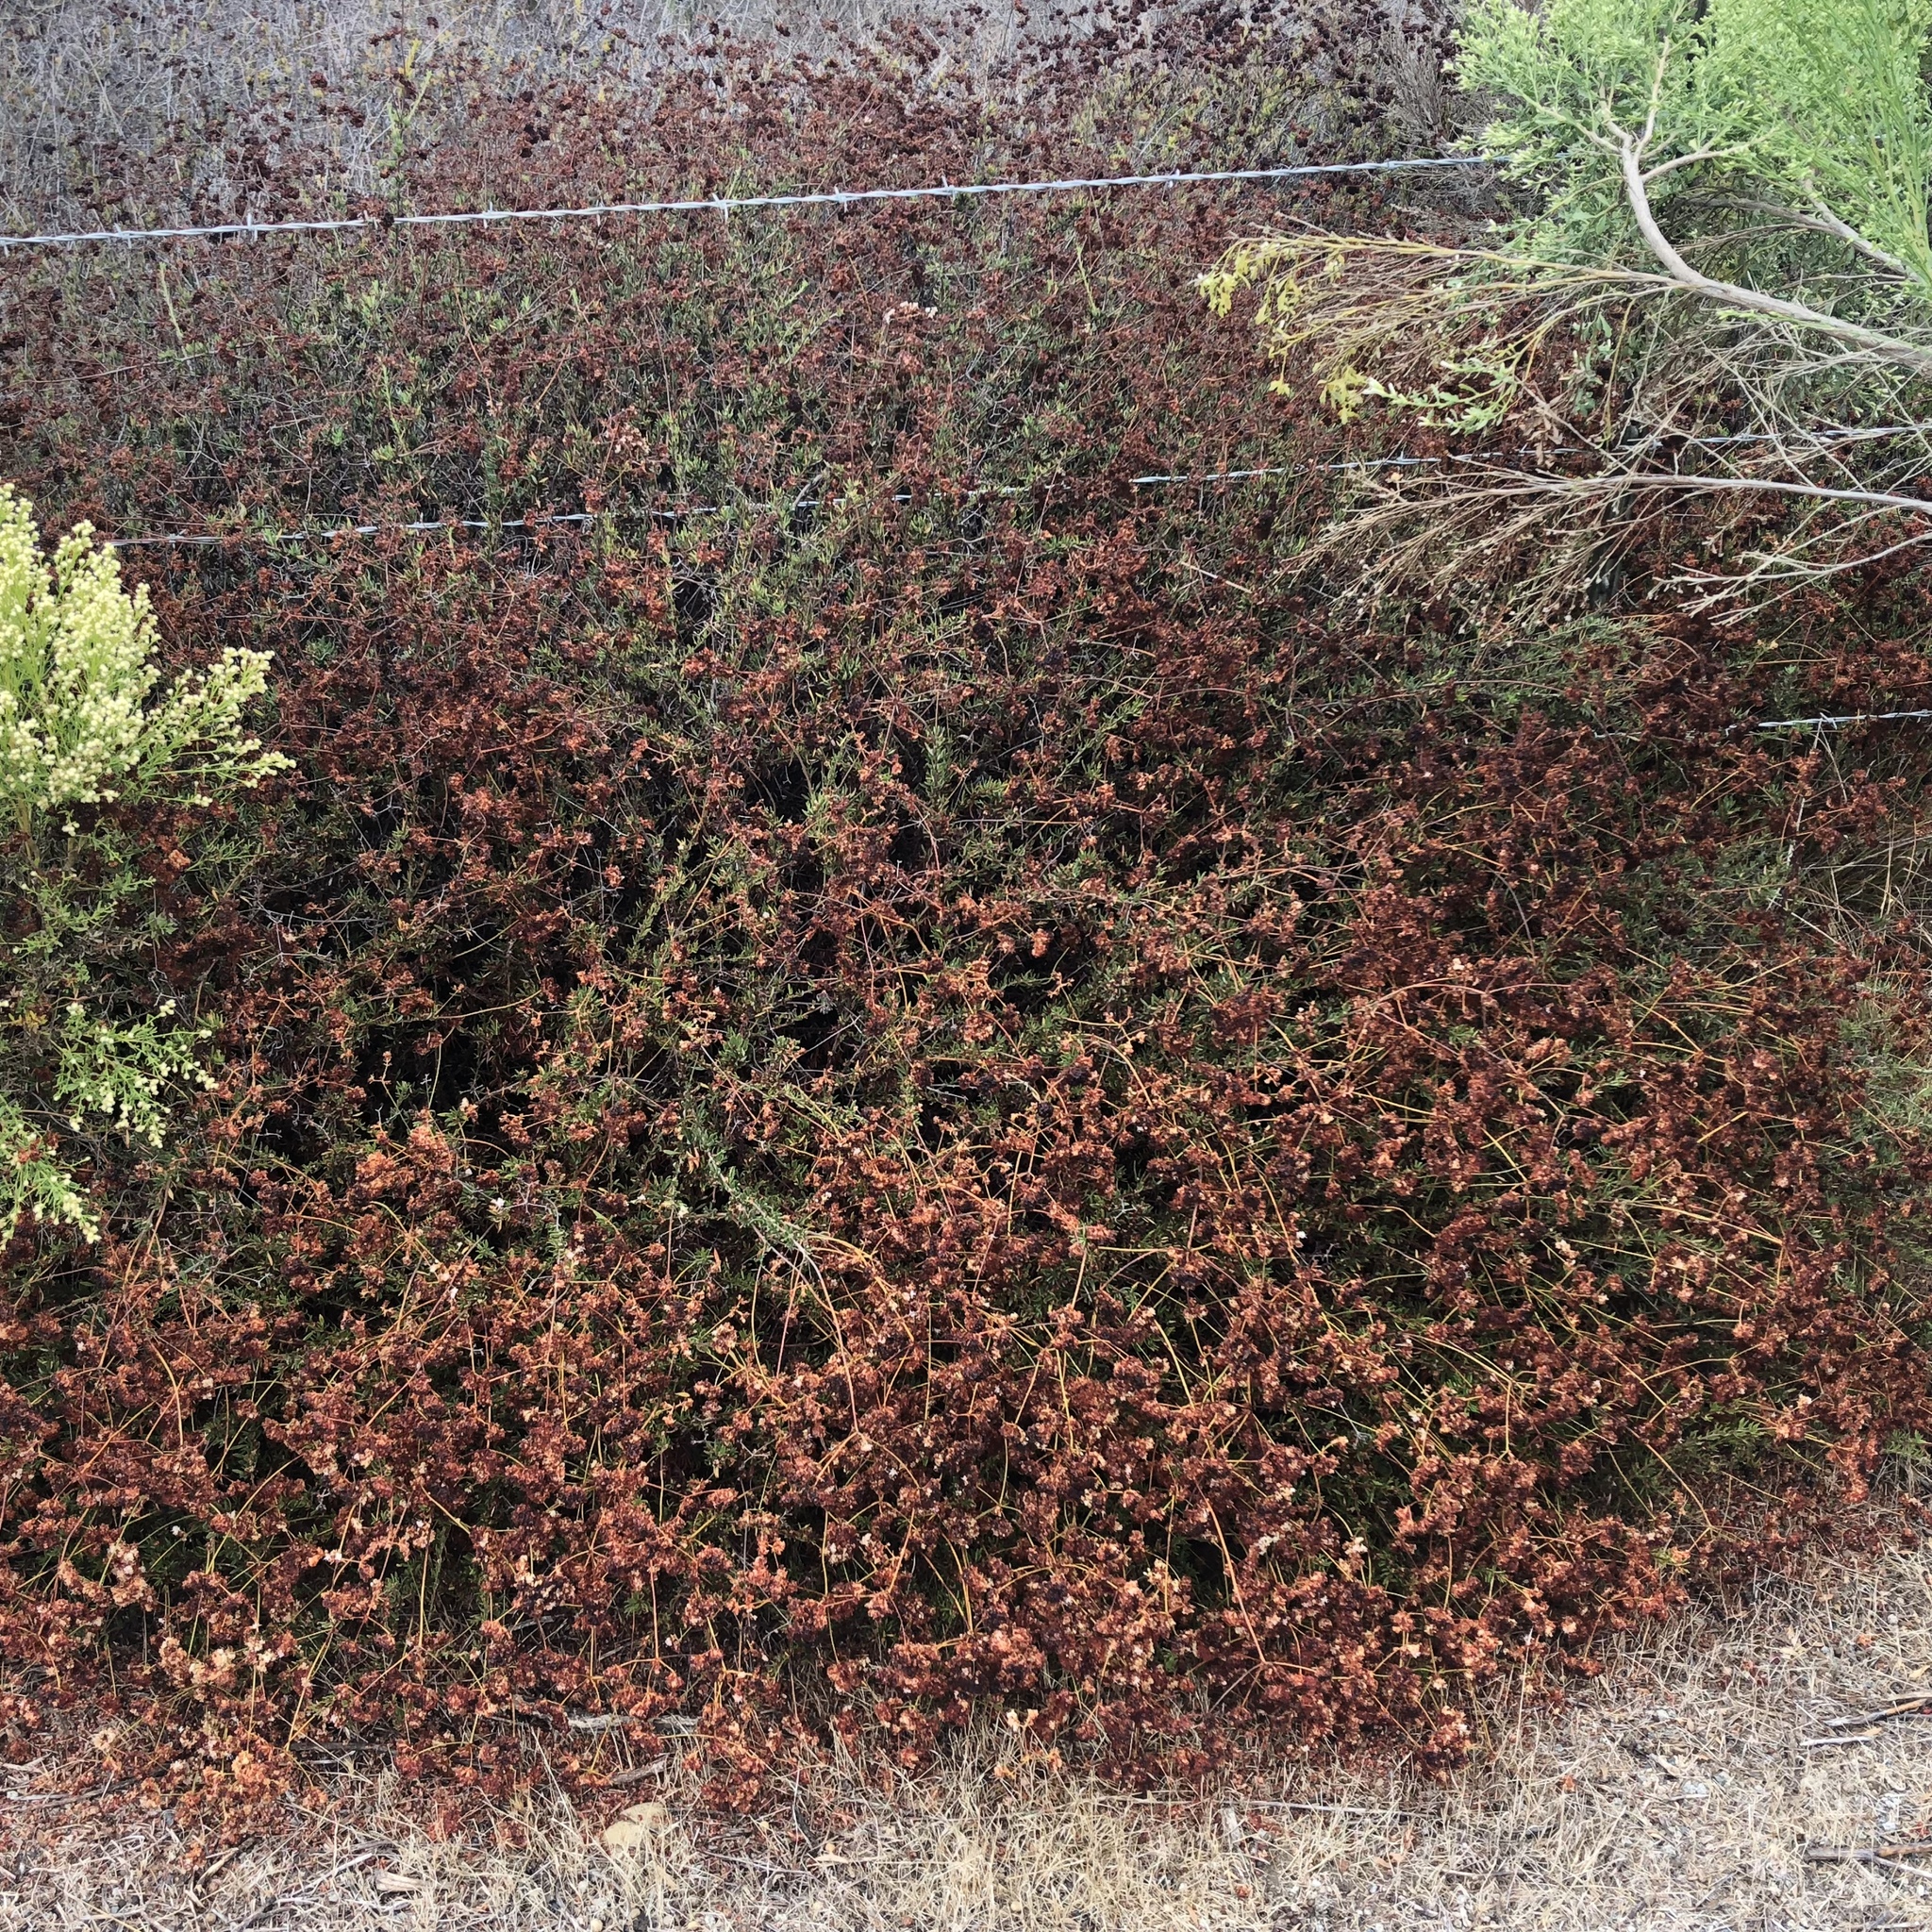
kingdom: Plantae
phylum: Tracheophyta
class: Magnoliopsida
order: Caryophyllales
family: Polygonaceae
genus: Eriogonum
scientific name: Eriogonum fasciculatum
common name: California wild buckwheat
